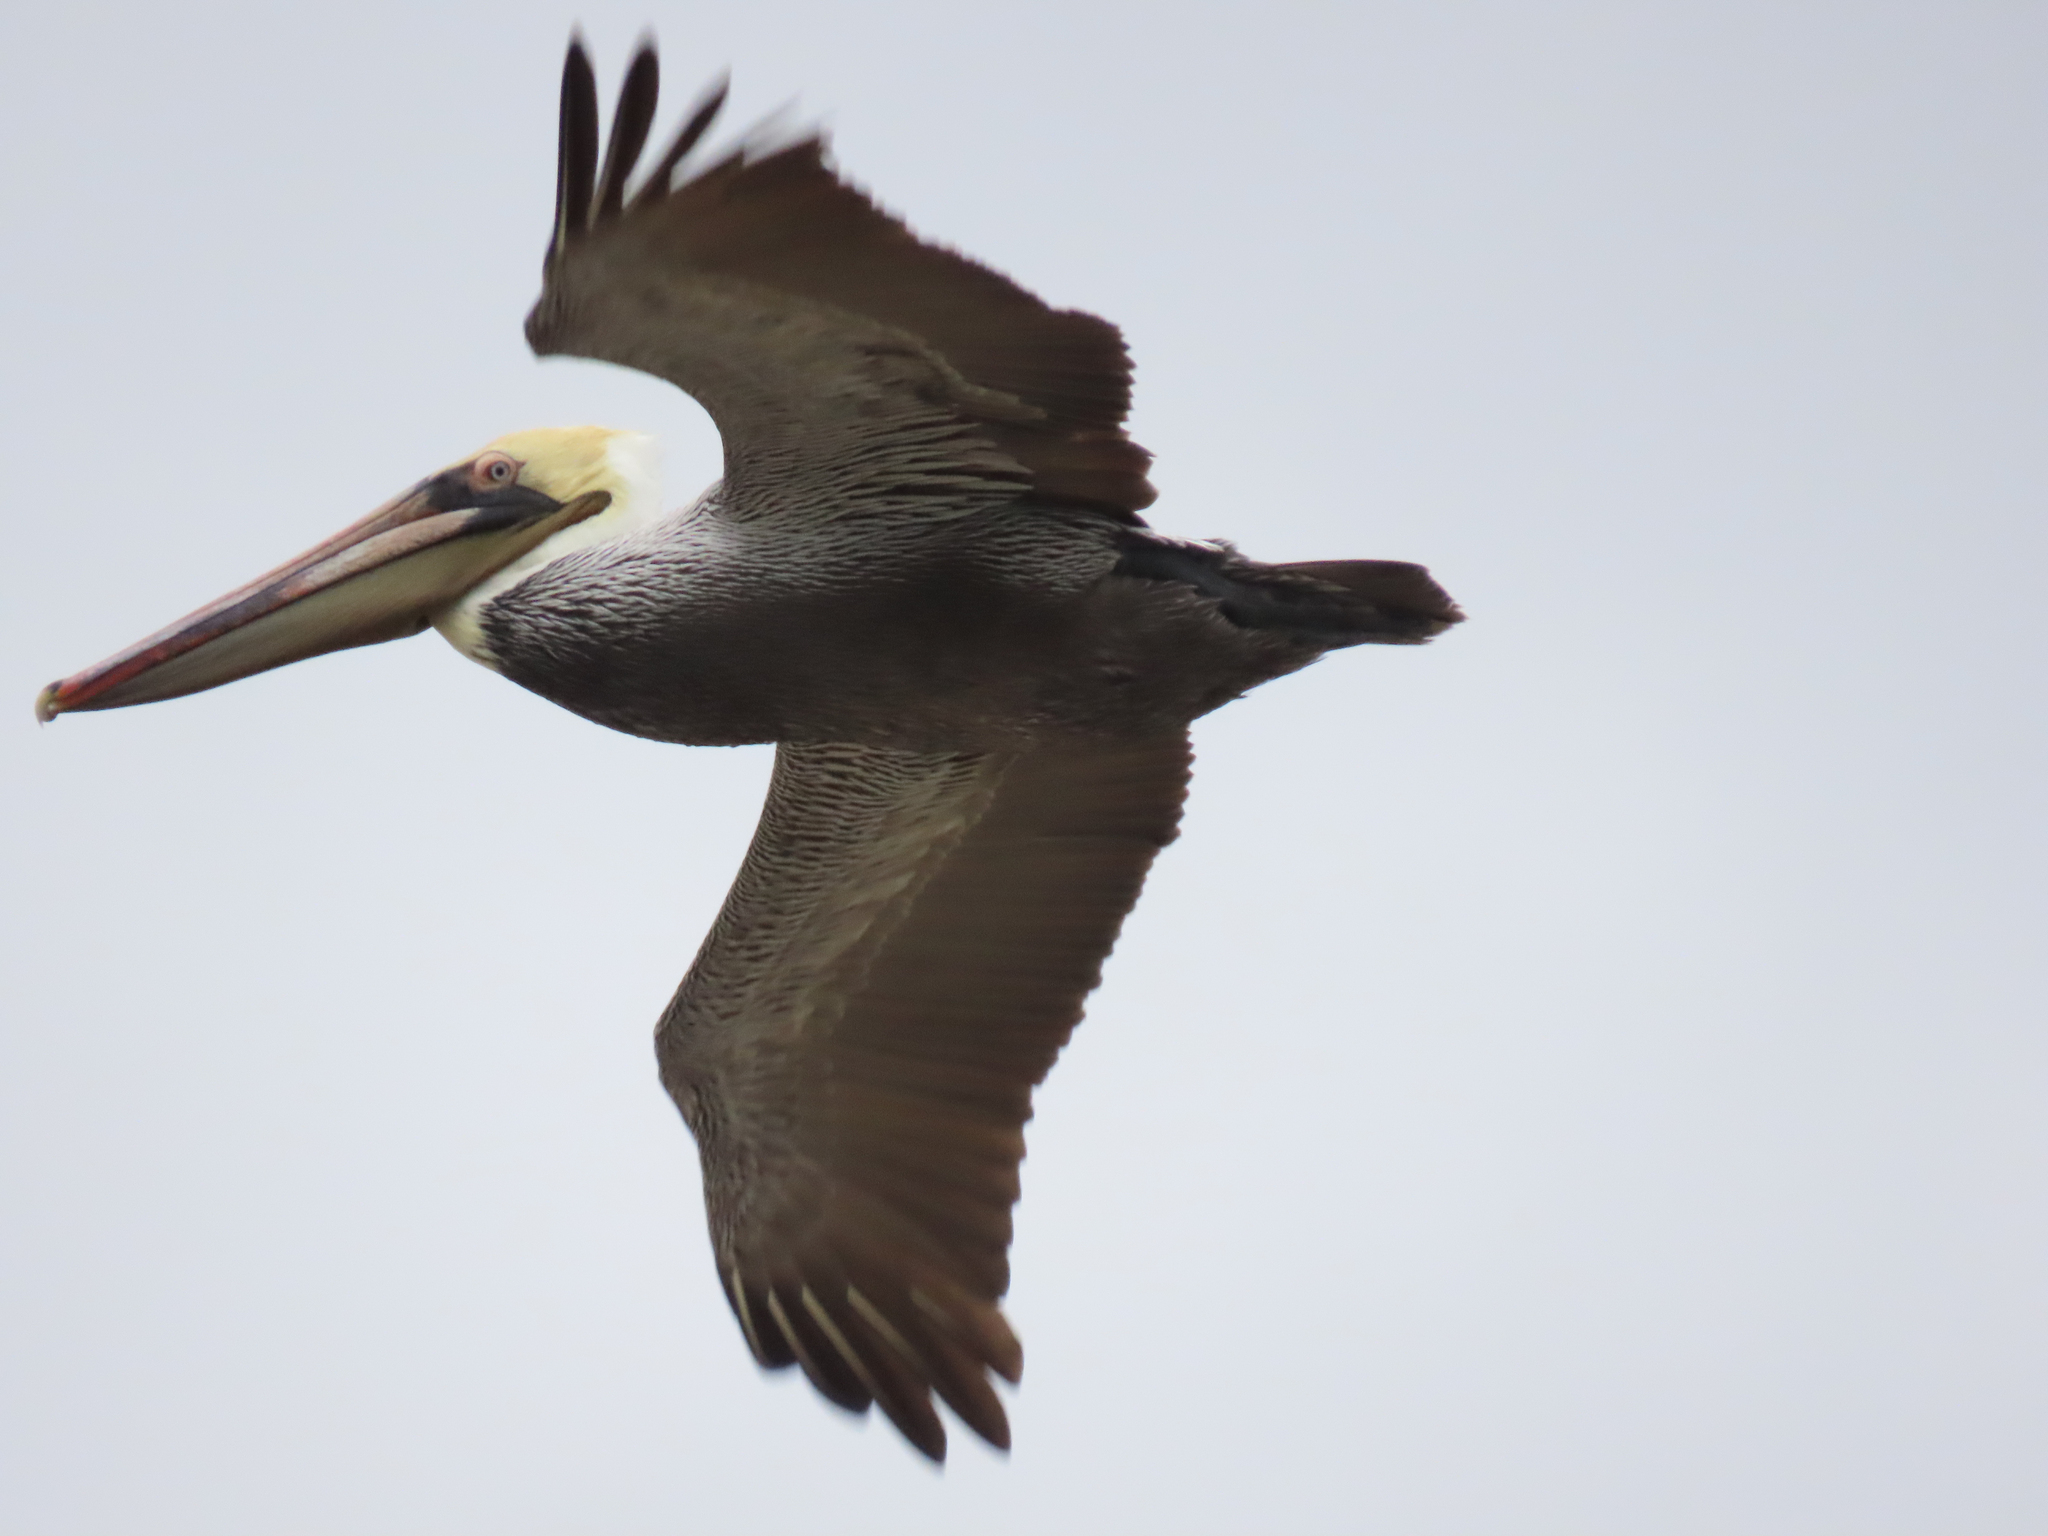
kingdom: Animalia
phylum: Chordata
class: Aves
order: Pelecaniformes
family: Pelecanidae
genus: Pelecanus
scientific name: Pelecanus occidentalis
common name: Brown pelican
